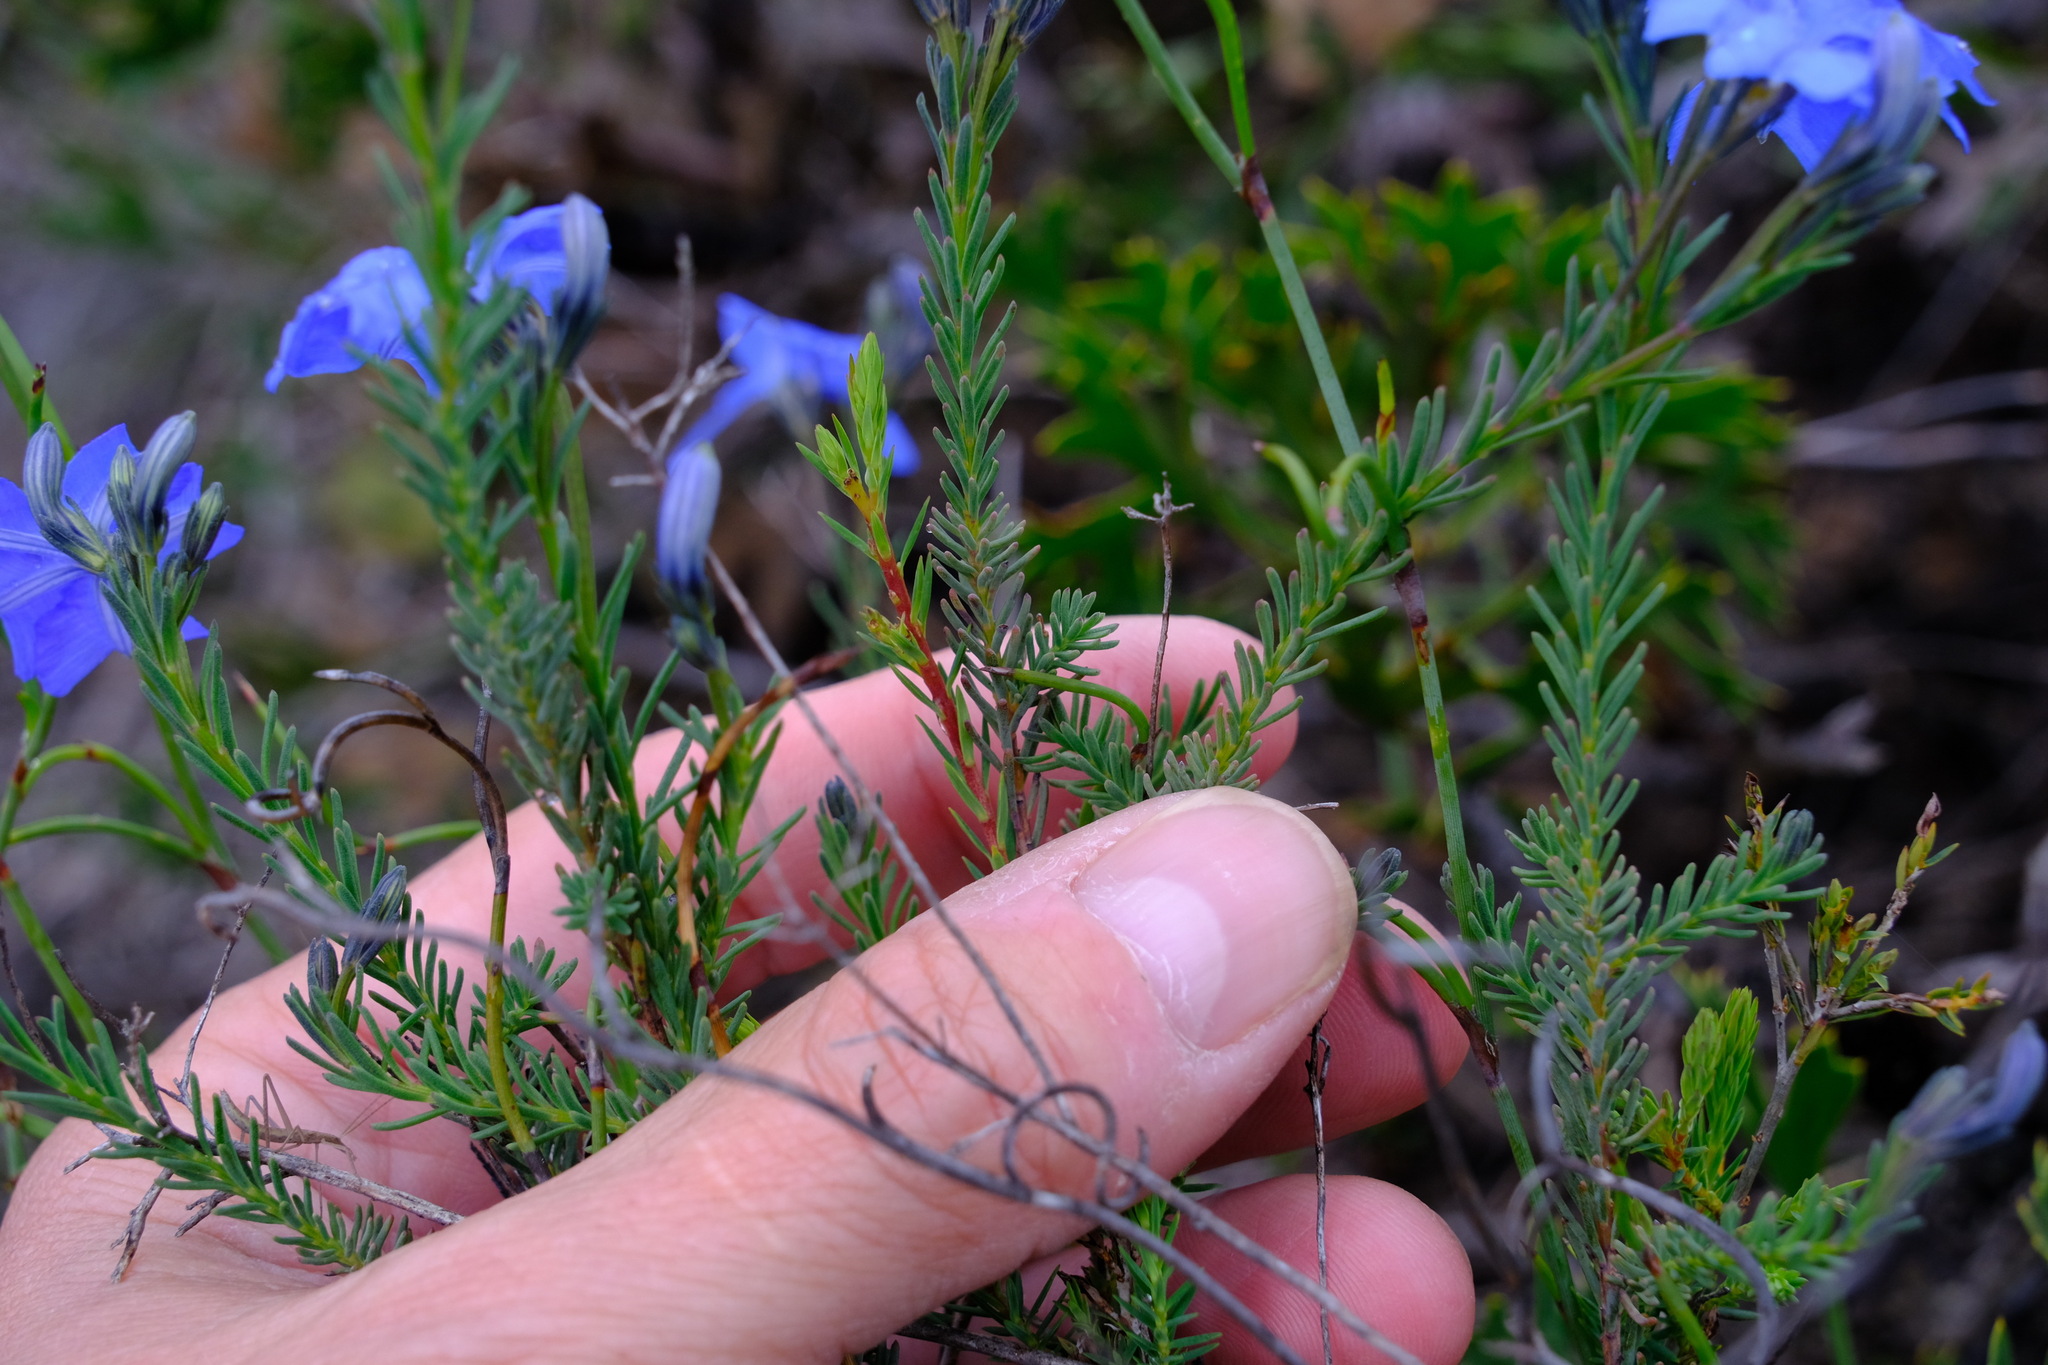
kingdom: Plantae
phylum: Tracheophyta
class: Magnoliopsida
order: Asterales
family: Goodeniaceae
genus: Lechenaultia
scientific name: Lechenaultia biloba
